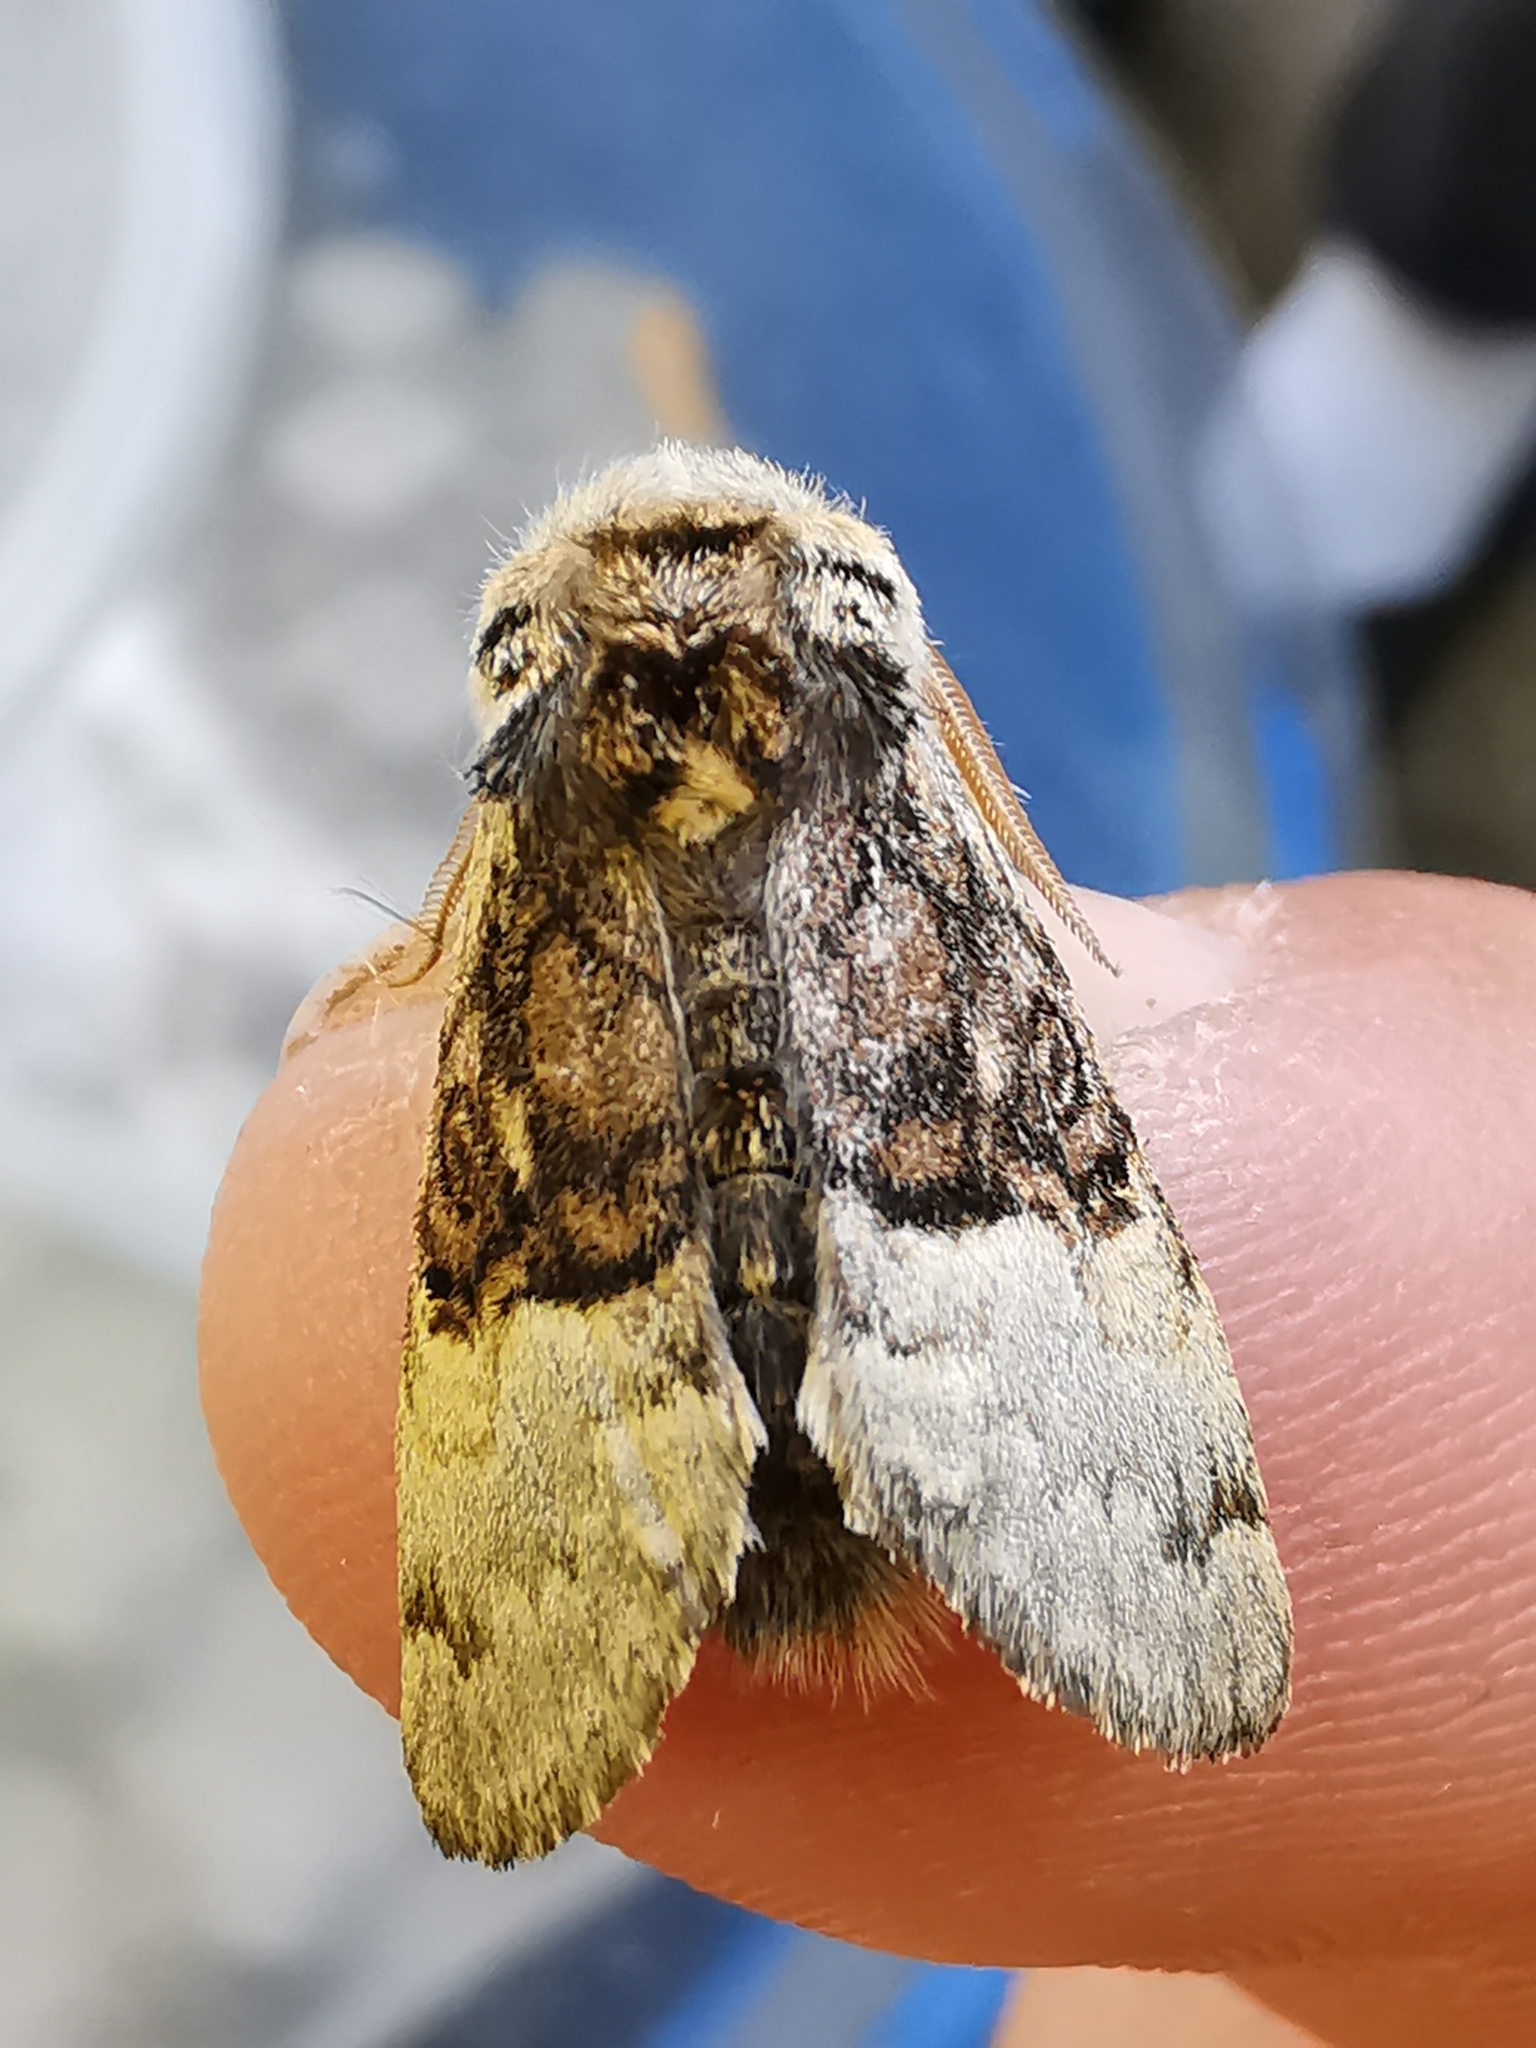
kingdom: Animalia
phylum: Arthropoda
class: Insecta
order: Lepidoptera
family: Noctuidae
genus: Colocasia
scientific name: Colocasia coryli
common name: Nut-tree tussock
